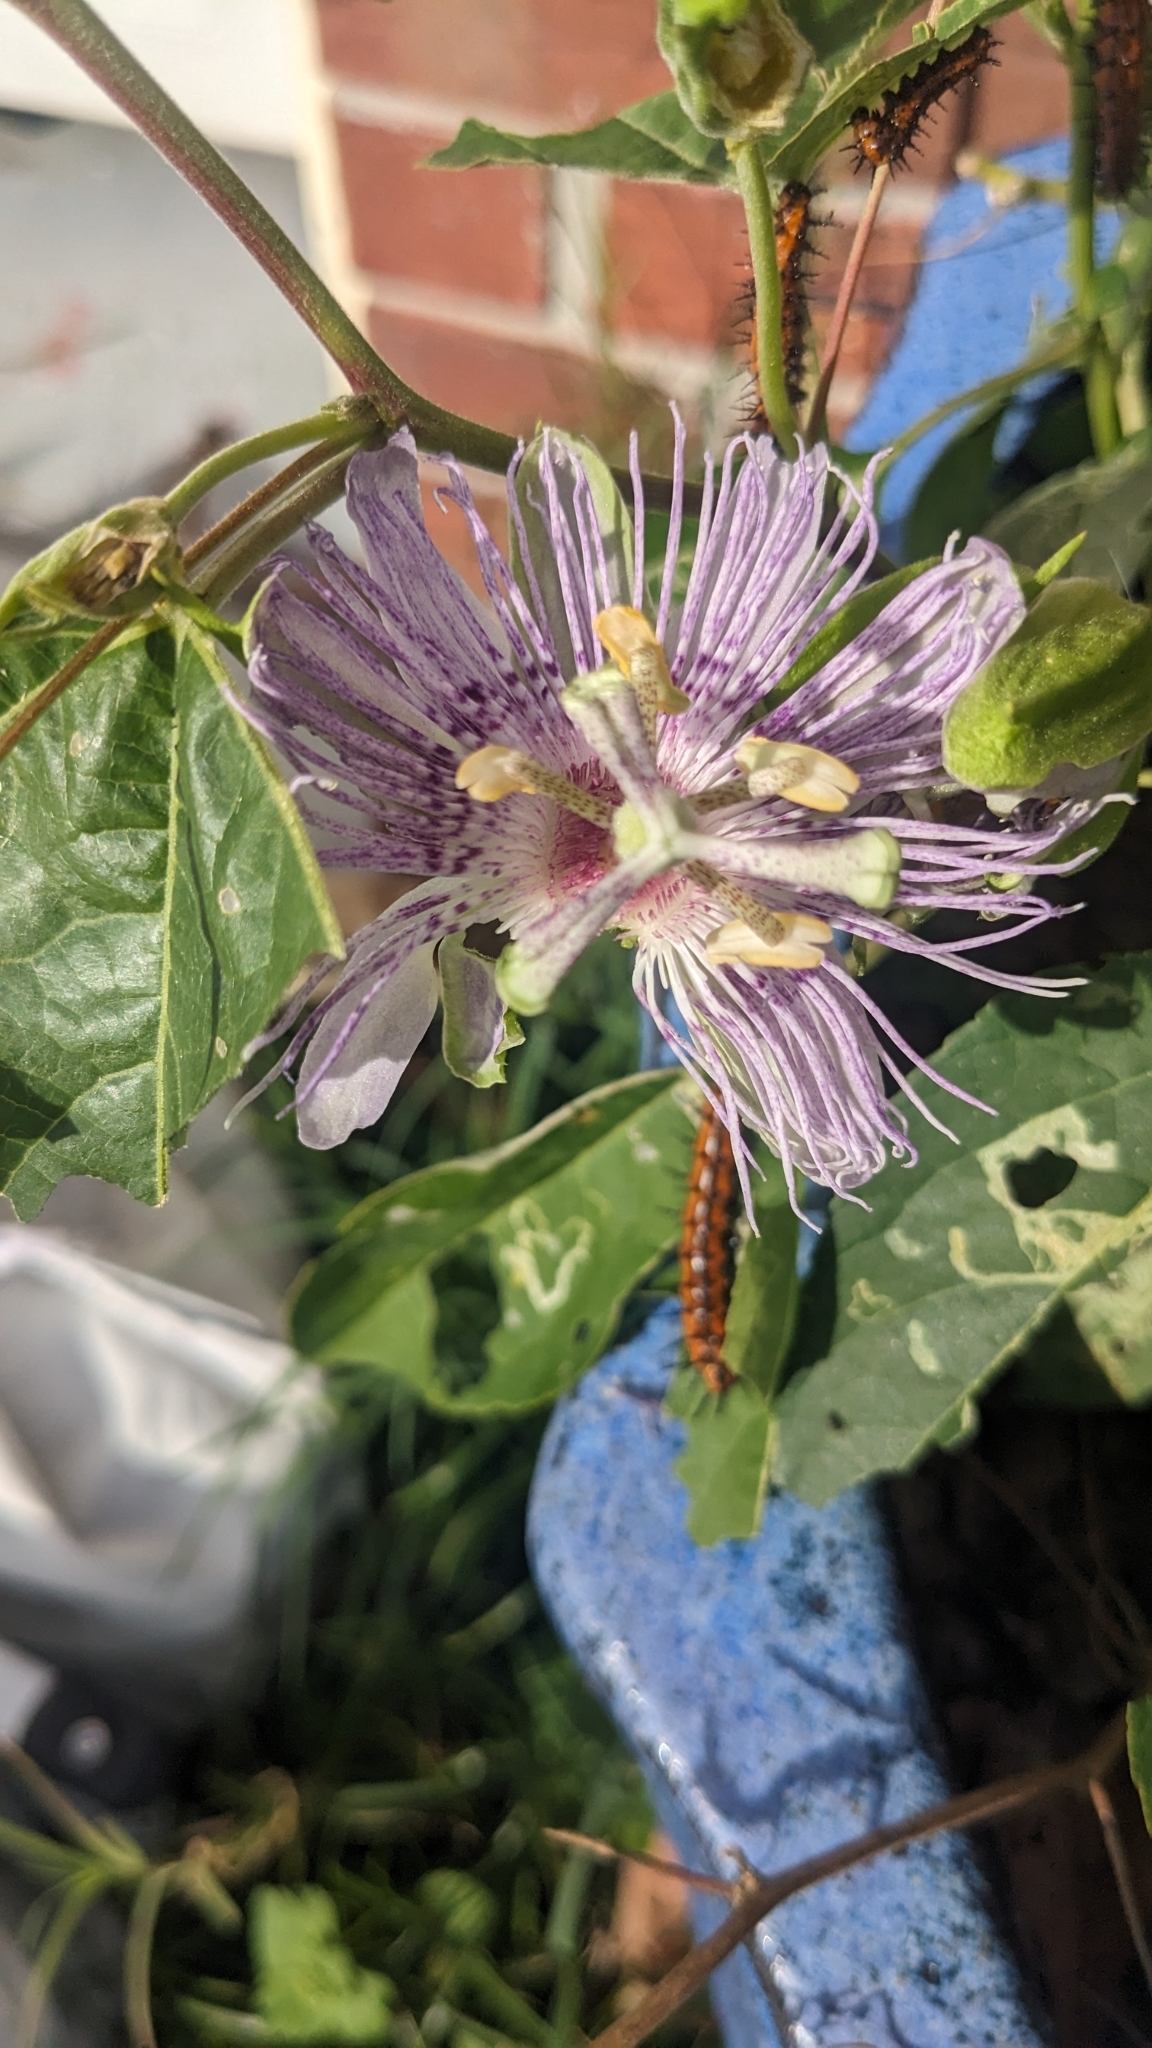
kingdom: Animalia
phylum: Arthropoda
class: Insecta
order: Lepidoptera
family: Nymphalidae
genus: Dione
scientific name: Dione vanillae
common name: Gulf fritillary
